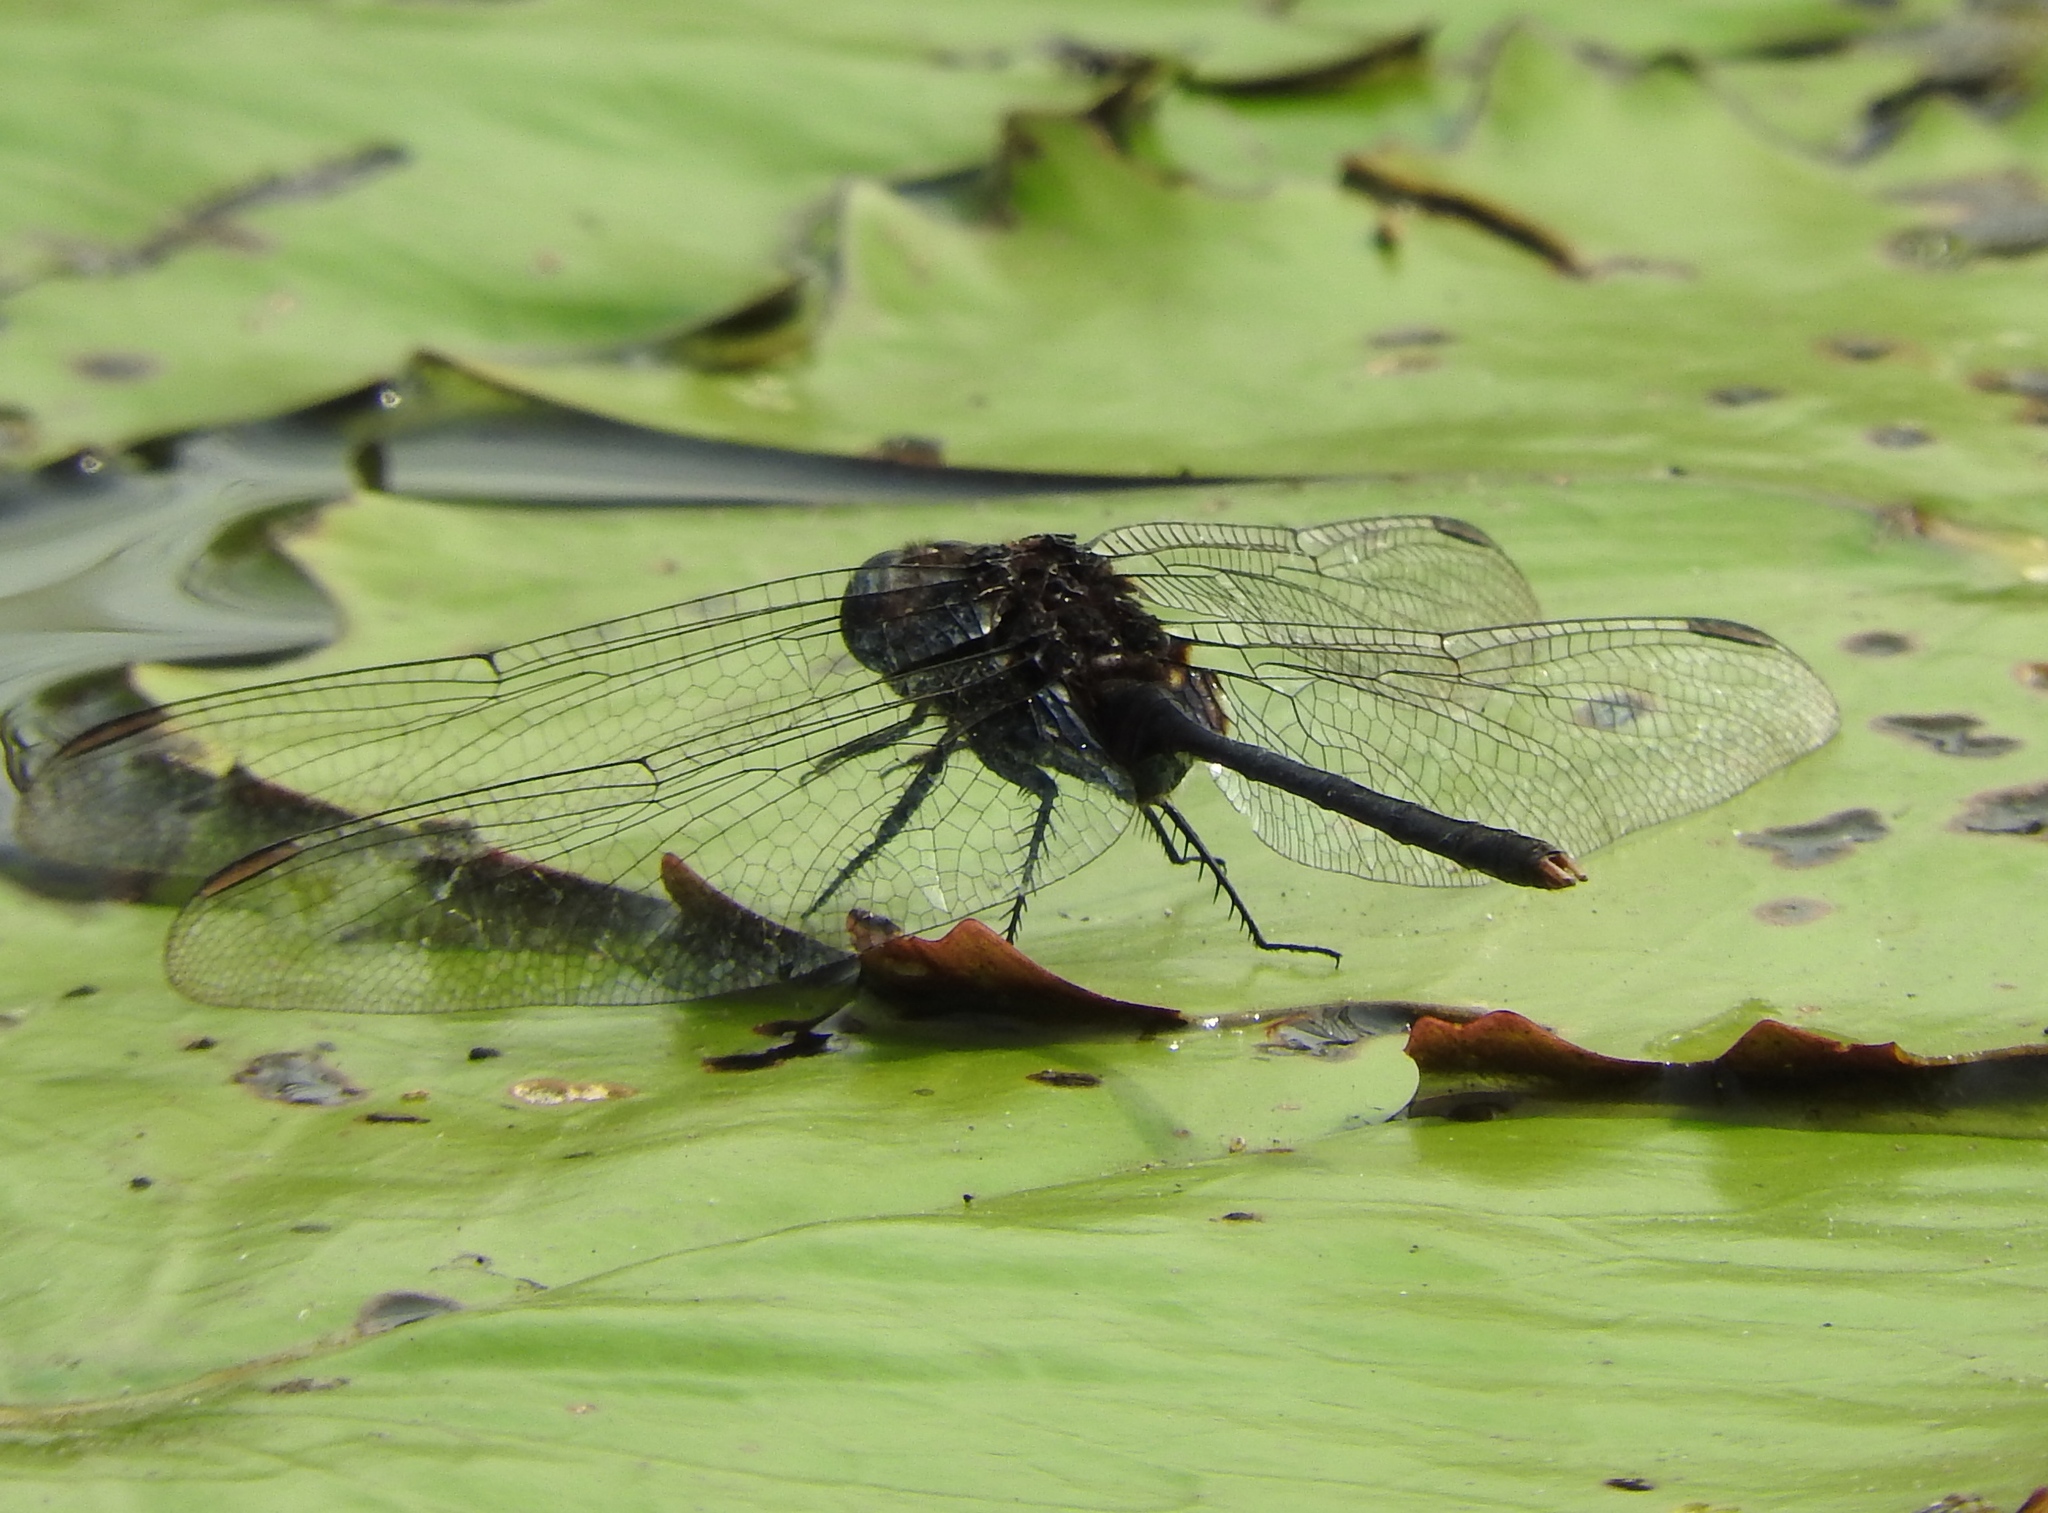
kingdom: Animalia
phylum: Arthropoda
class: Insecta
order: Odonata
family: Libellulidae
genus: Erythemis
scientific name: Erythemis plebeja
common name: Pin-tailed pondhawk
